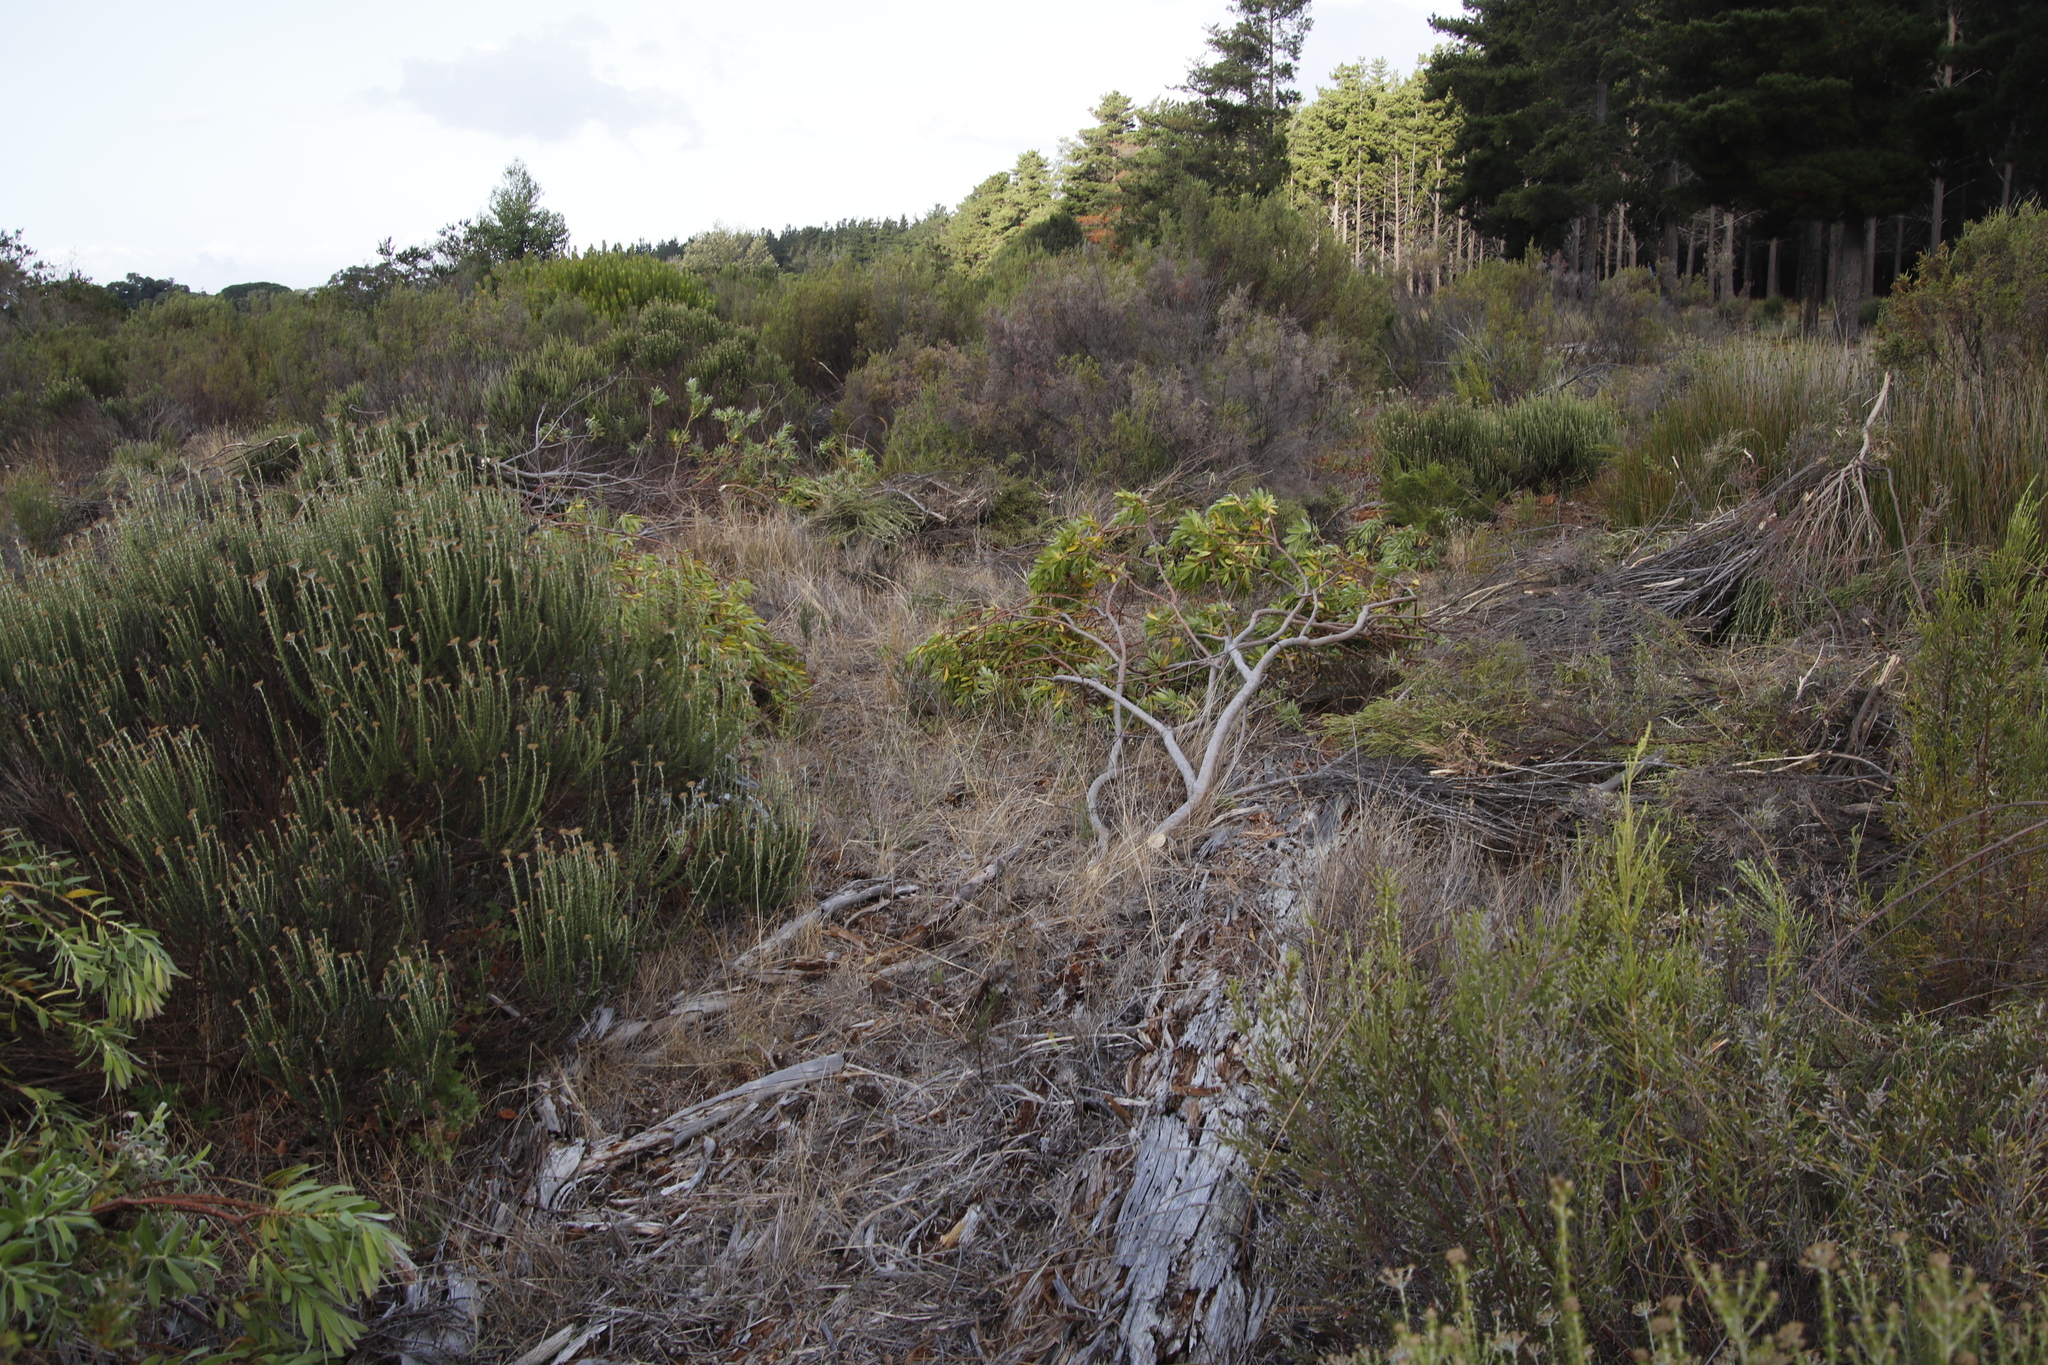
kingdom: Plantae
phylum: Tracheophyta
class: Magnoliopsida
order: Proteales
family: Proteaceae
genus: Leucadendron
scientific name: Leucadendron laureolum
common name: Golden sunshinebush
